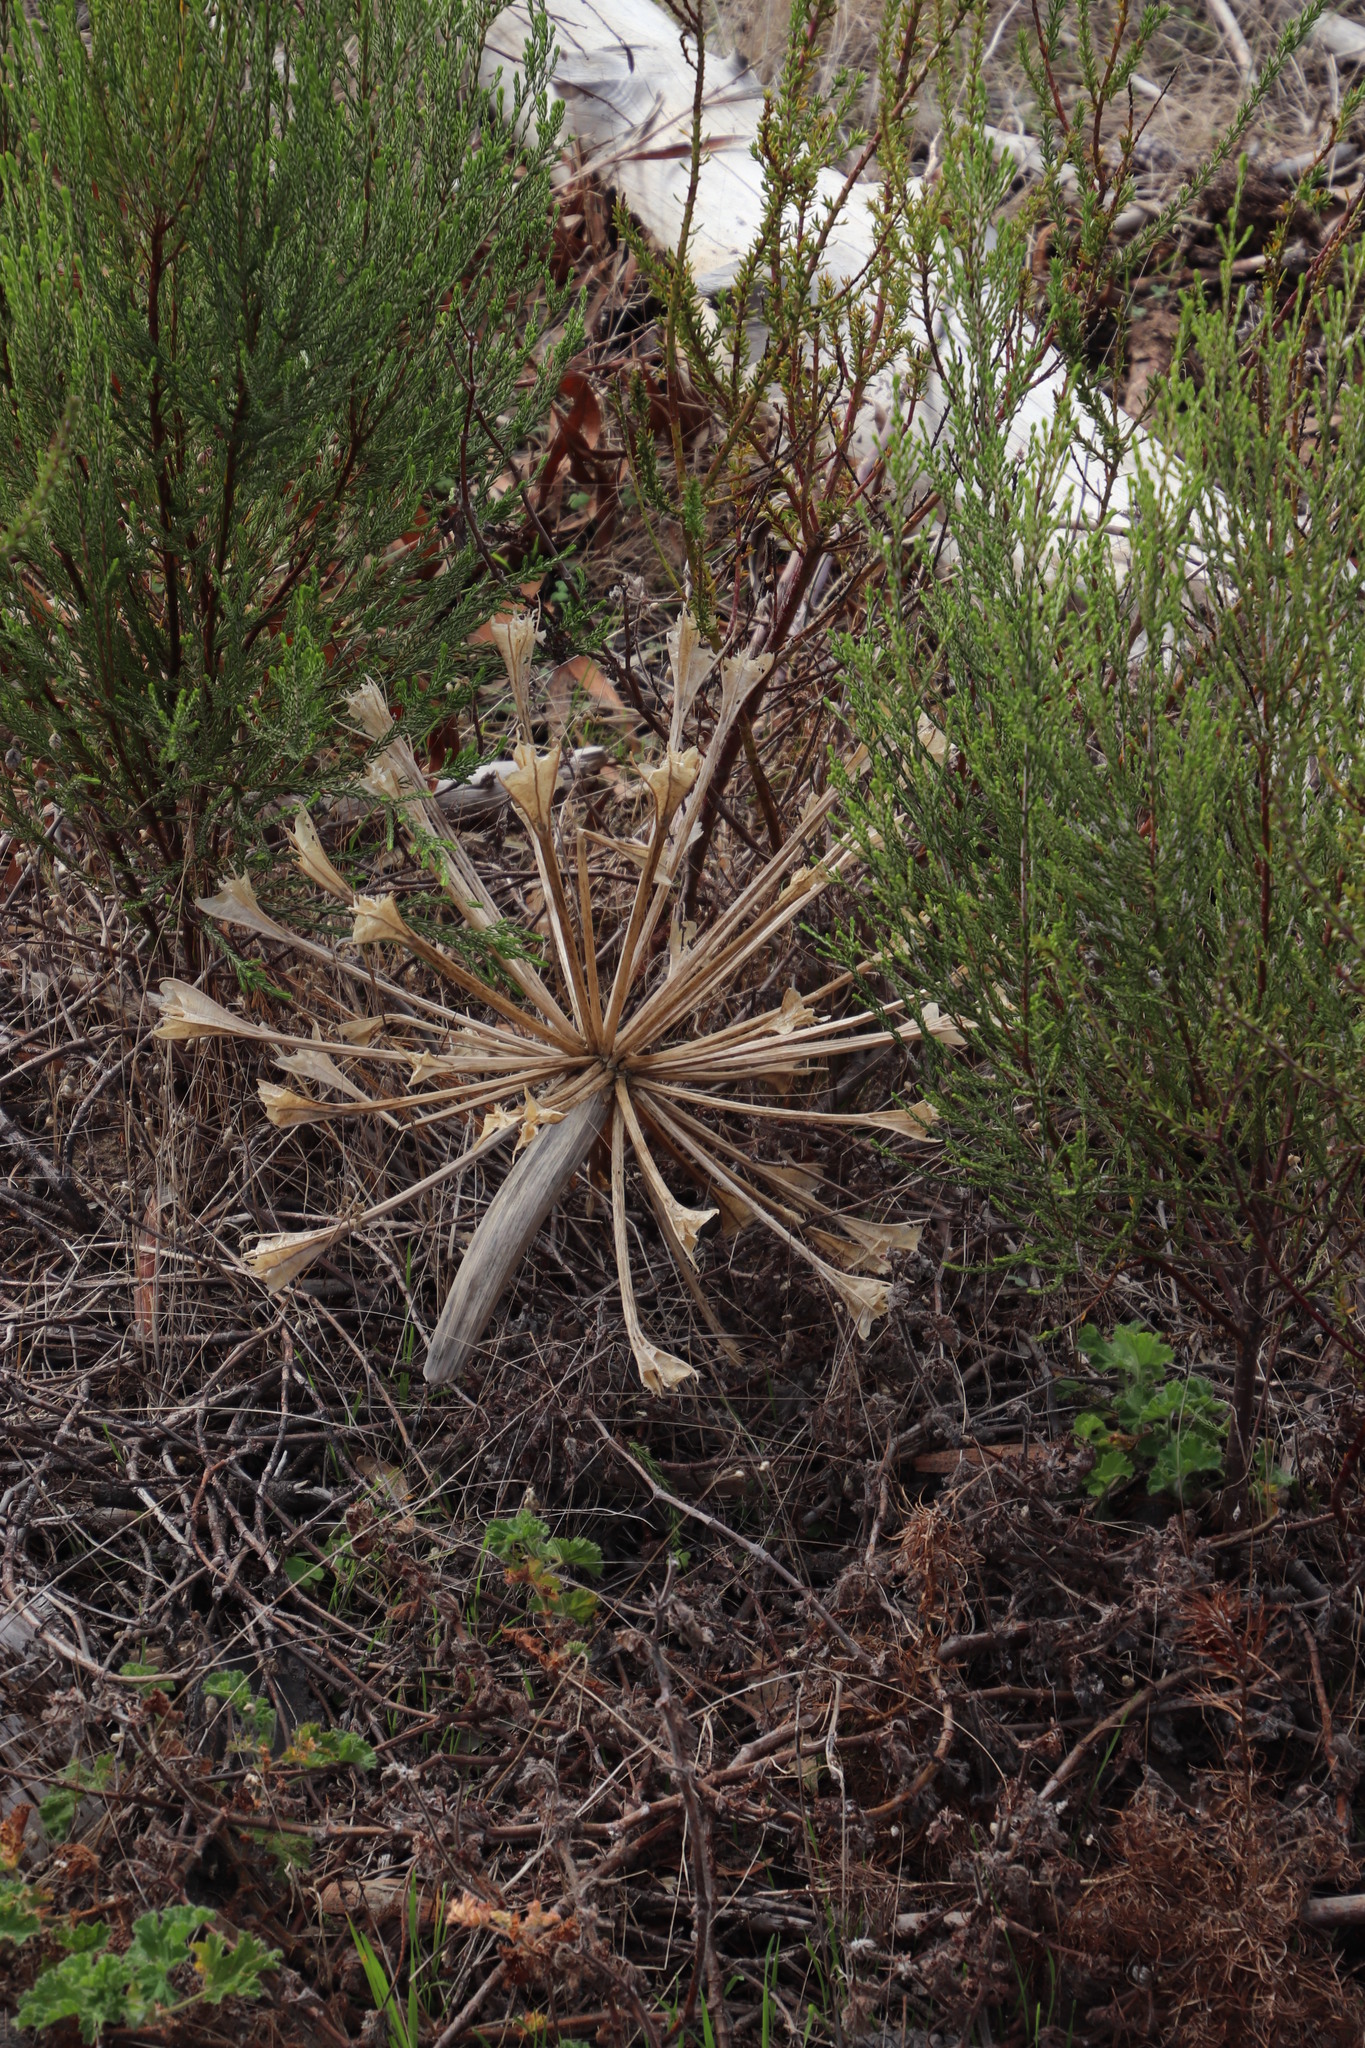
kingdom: Plantae
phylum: Tracheophyta
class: Liliopsida
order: Asparagales
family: Amaryllidaceae
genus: Brunsvigia
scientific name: Brunsvigia orientalis
